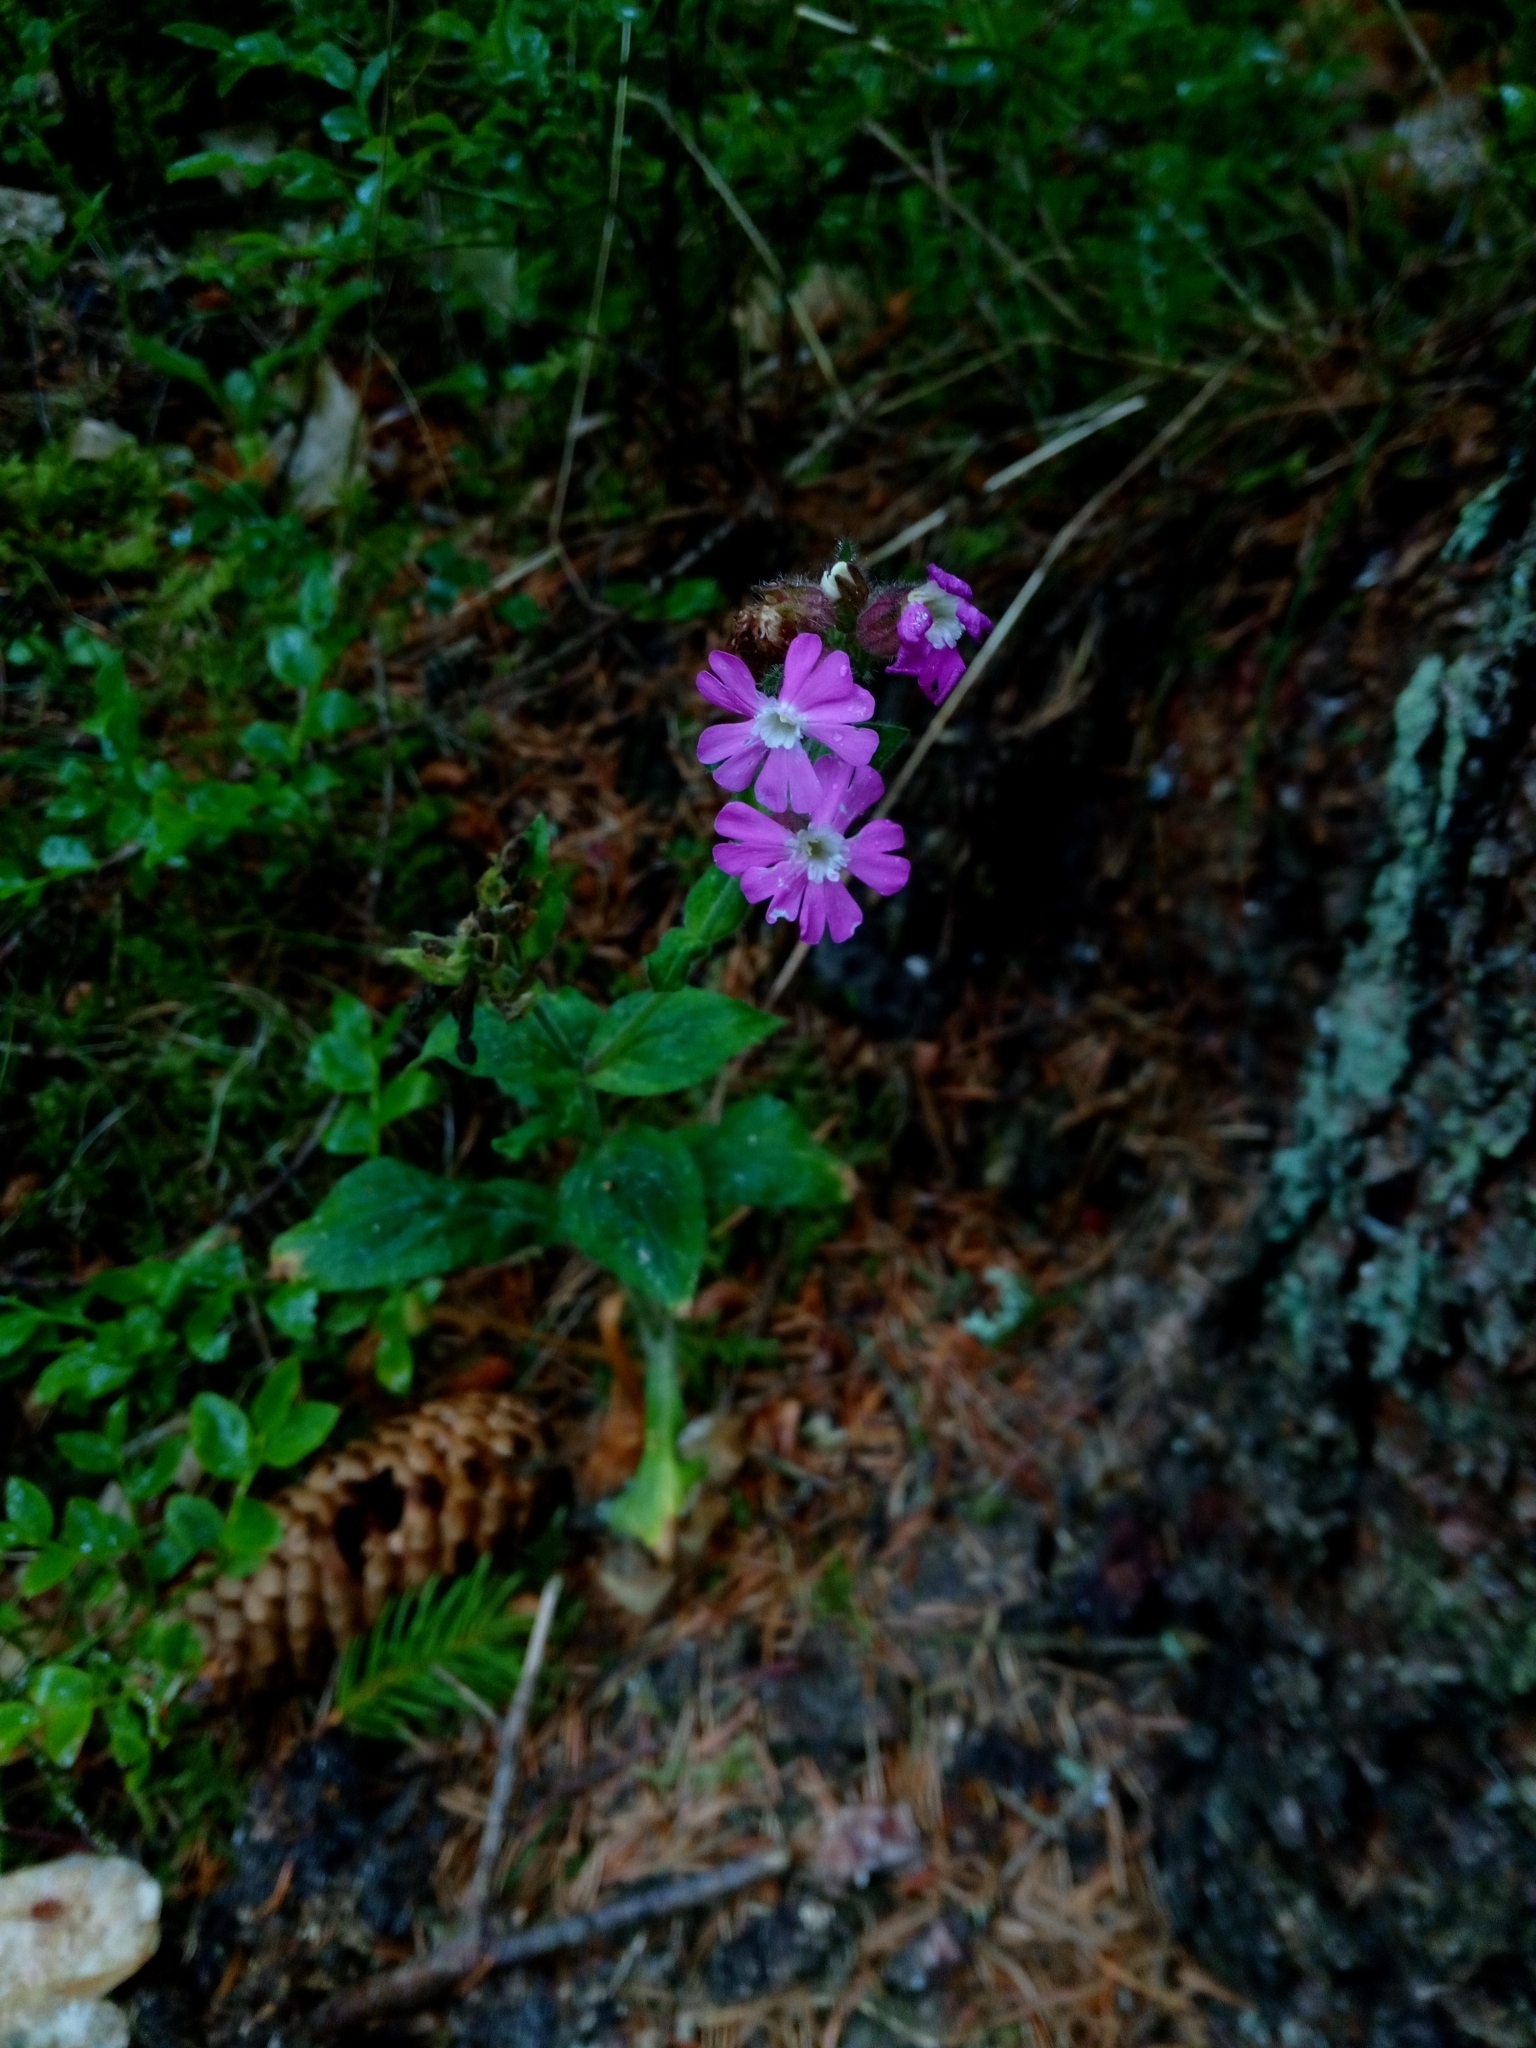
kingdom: Plantae
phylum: Tracheophyta
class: Magnoliopsida
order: Caryophyllales
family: Caryophyllaceae
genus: Silene
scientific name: Silene dioica
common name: Red campion
